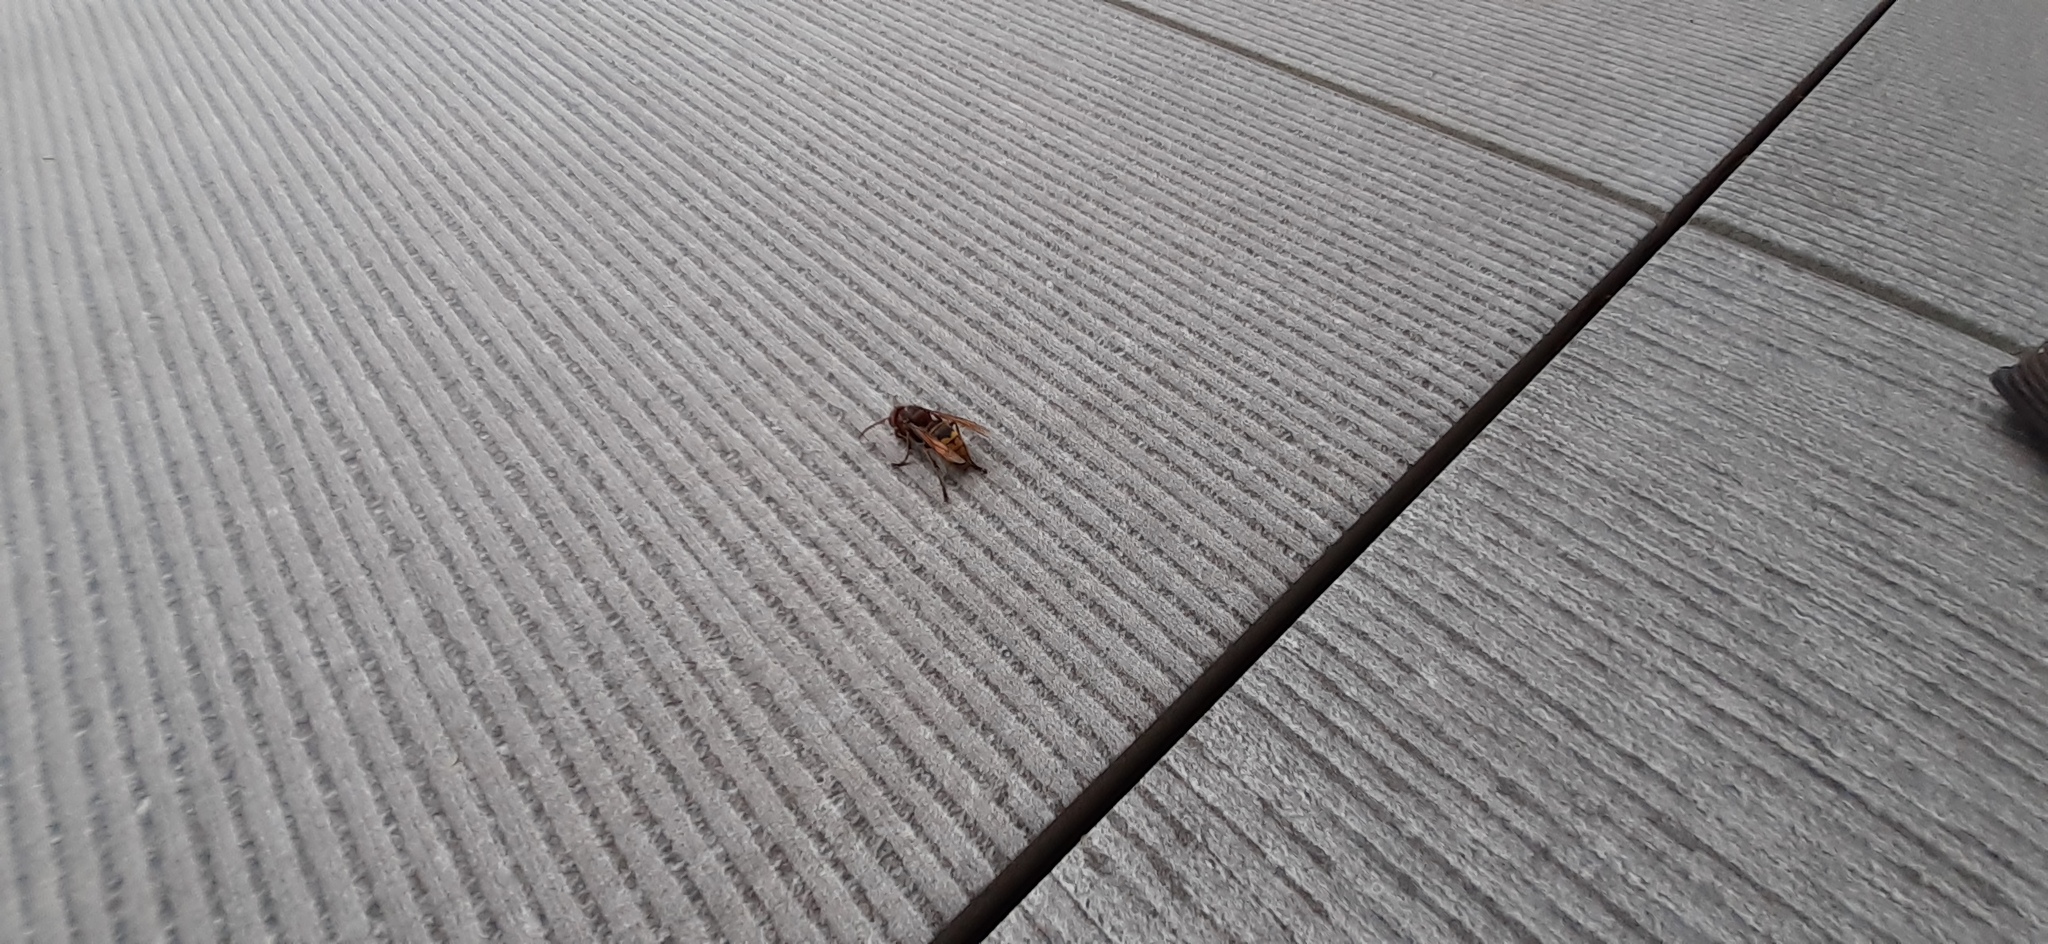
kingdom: Animalia
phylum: Arthropoda
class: Insecta
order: Hymenoptera
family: Vespidae
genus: Vespa
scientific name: Vespa crabro
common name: Hornet
